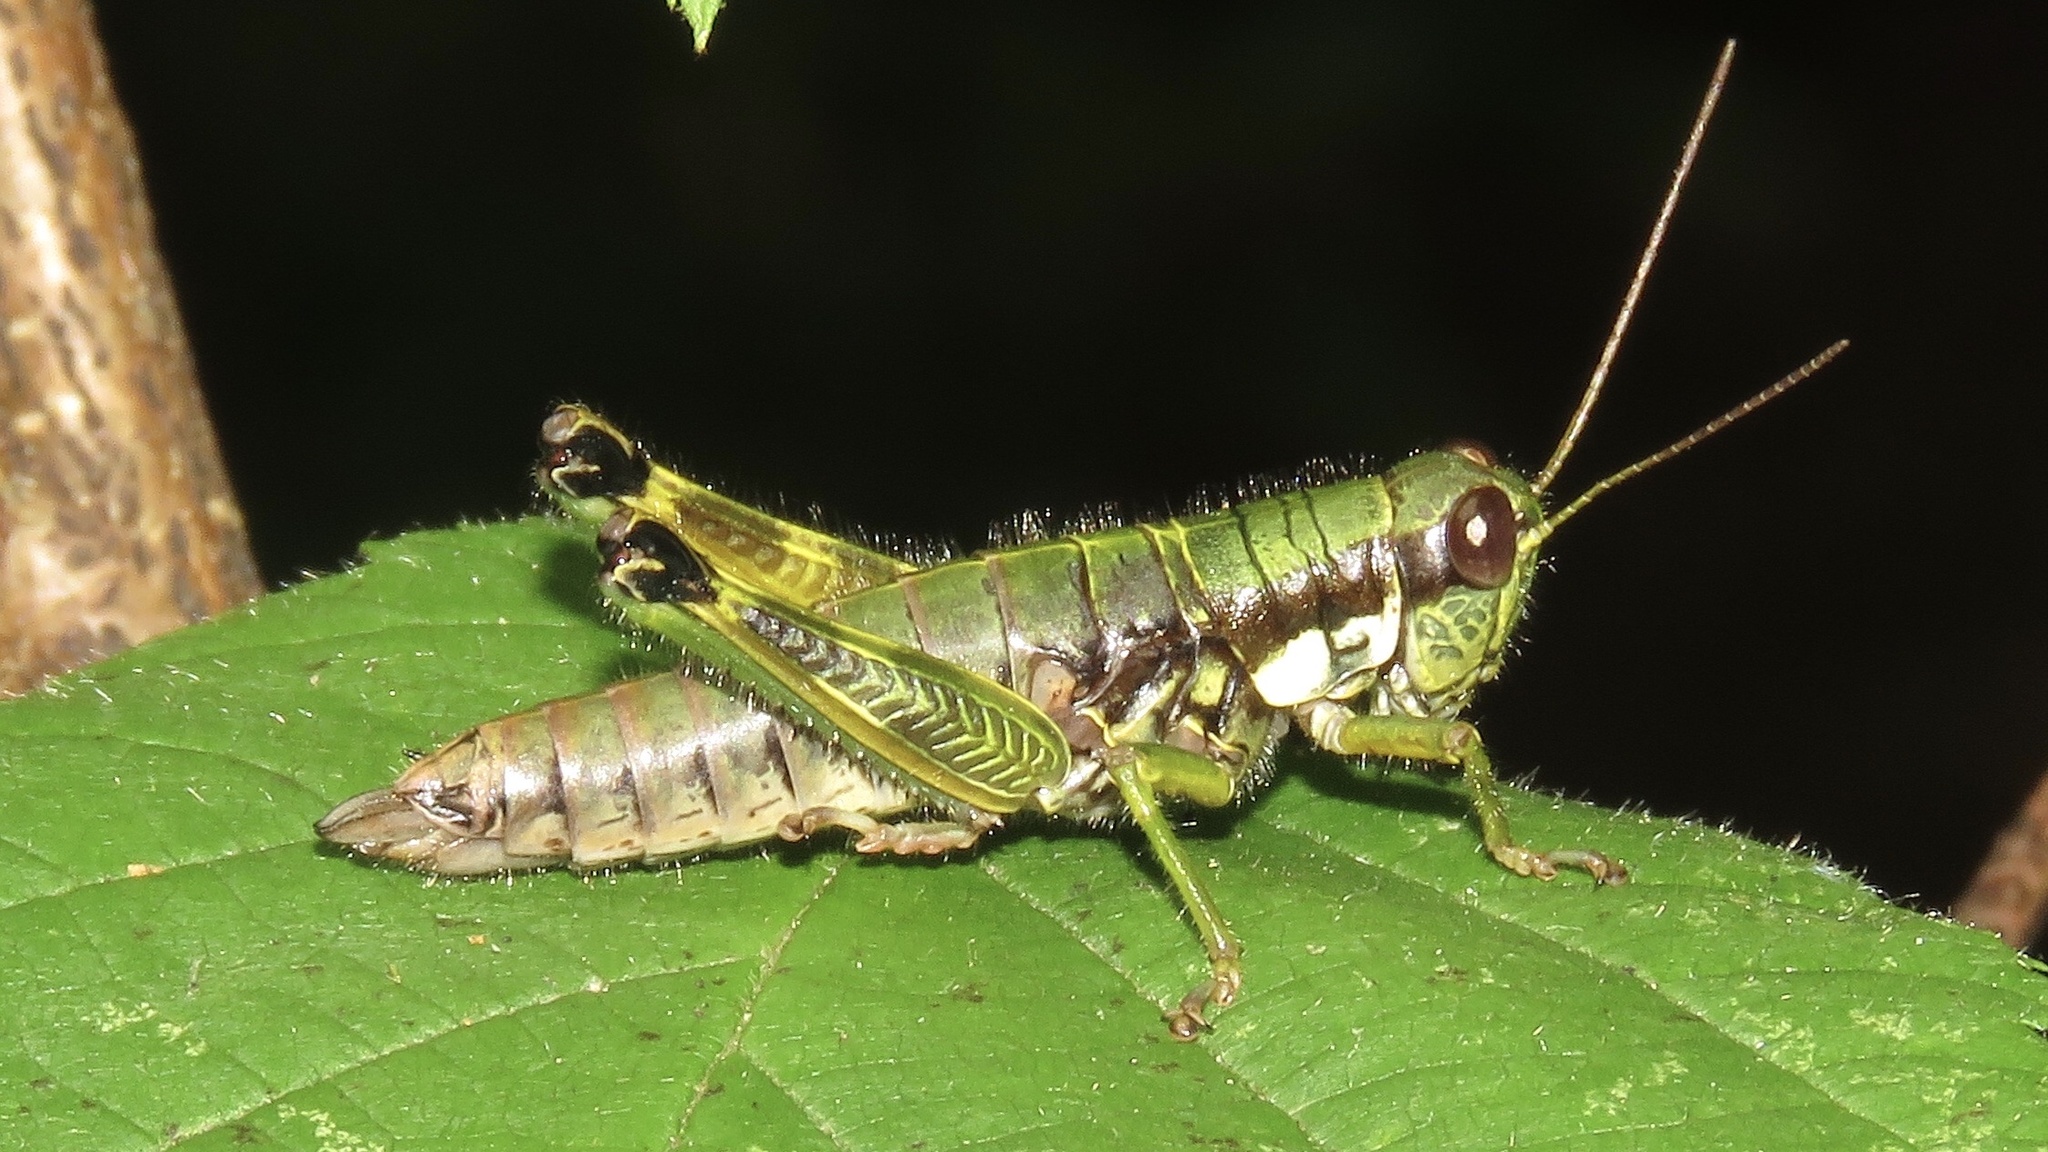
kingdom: Animalia
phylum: Arthropoda
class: Insecta
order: Orthoptera
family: Acrididae
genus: Booneacris
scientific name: Booneacris glacialis
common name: Wingless mountain grasshopper
